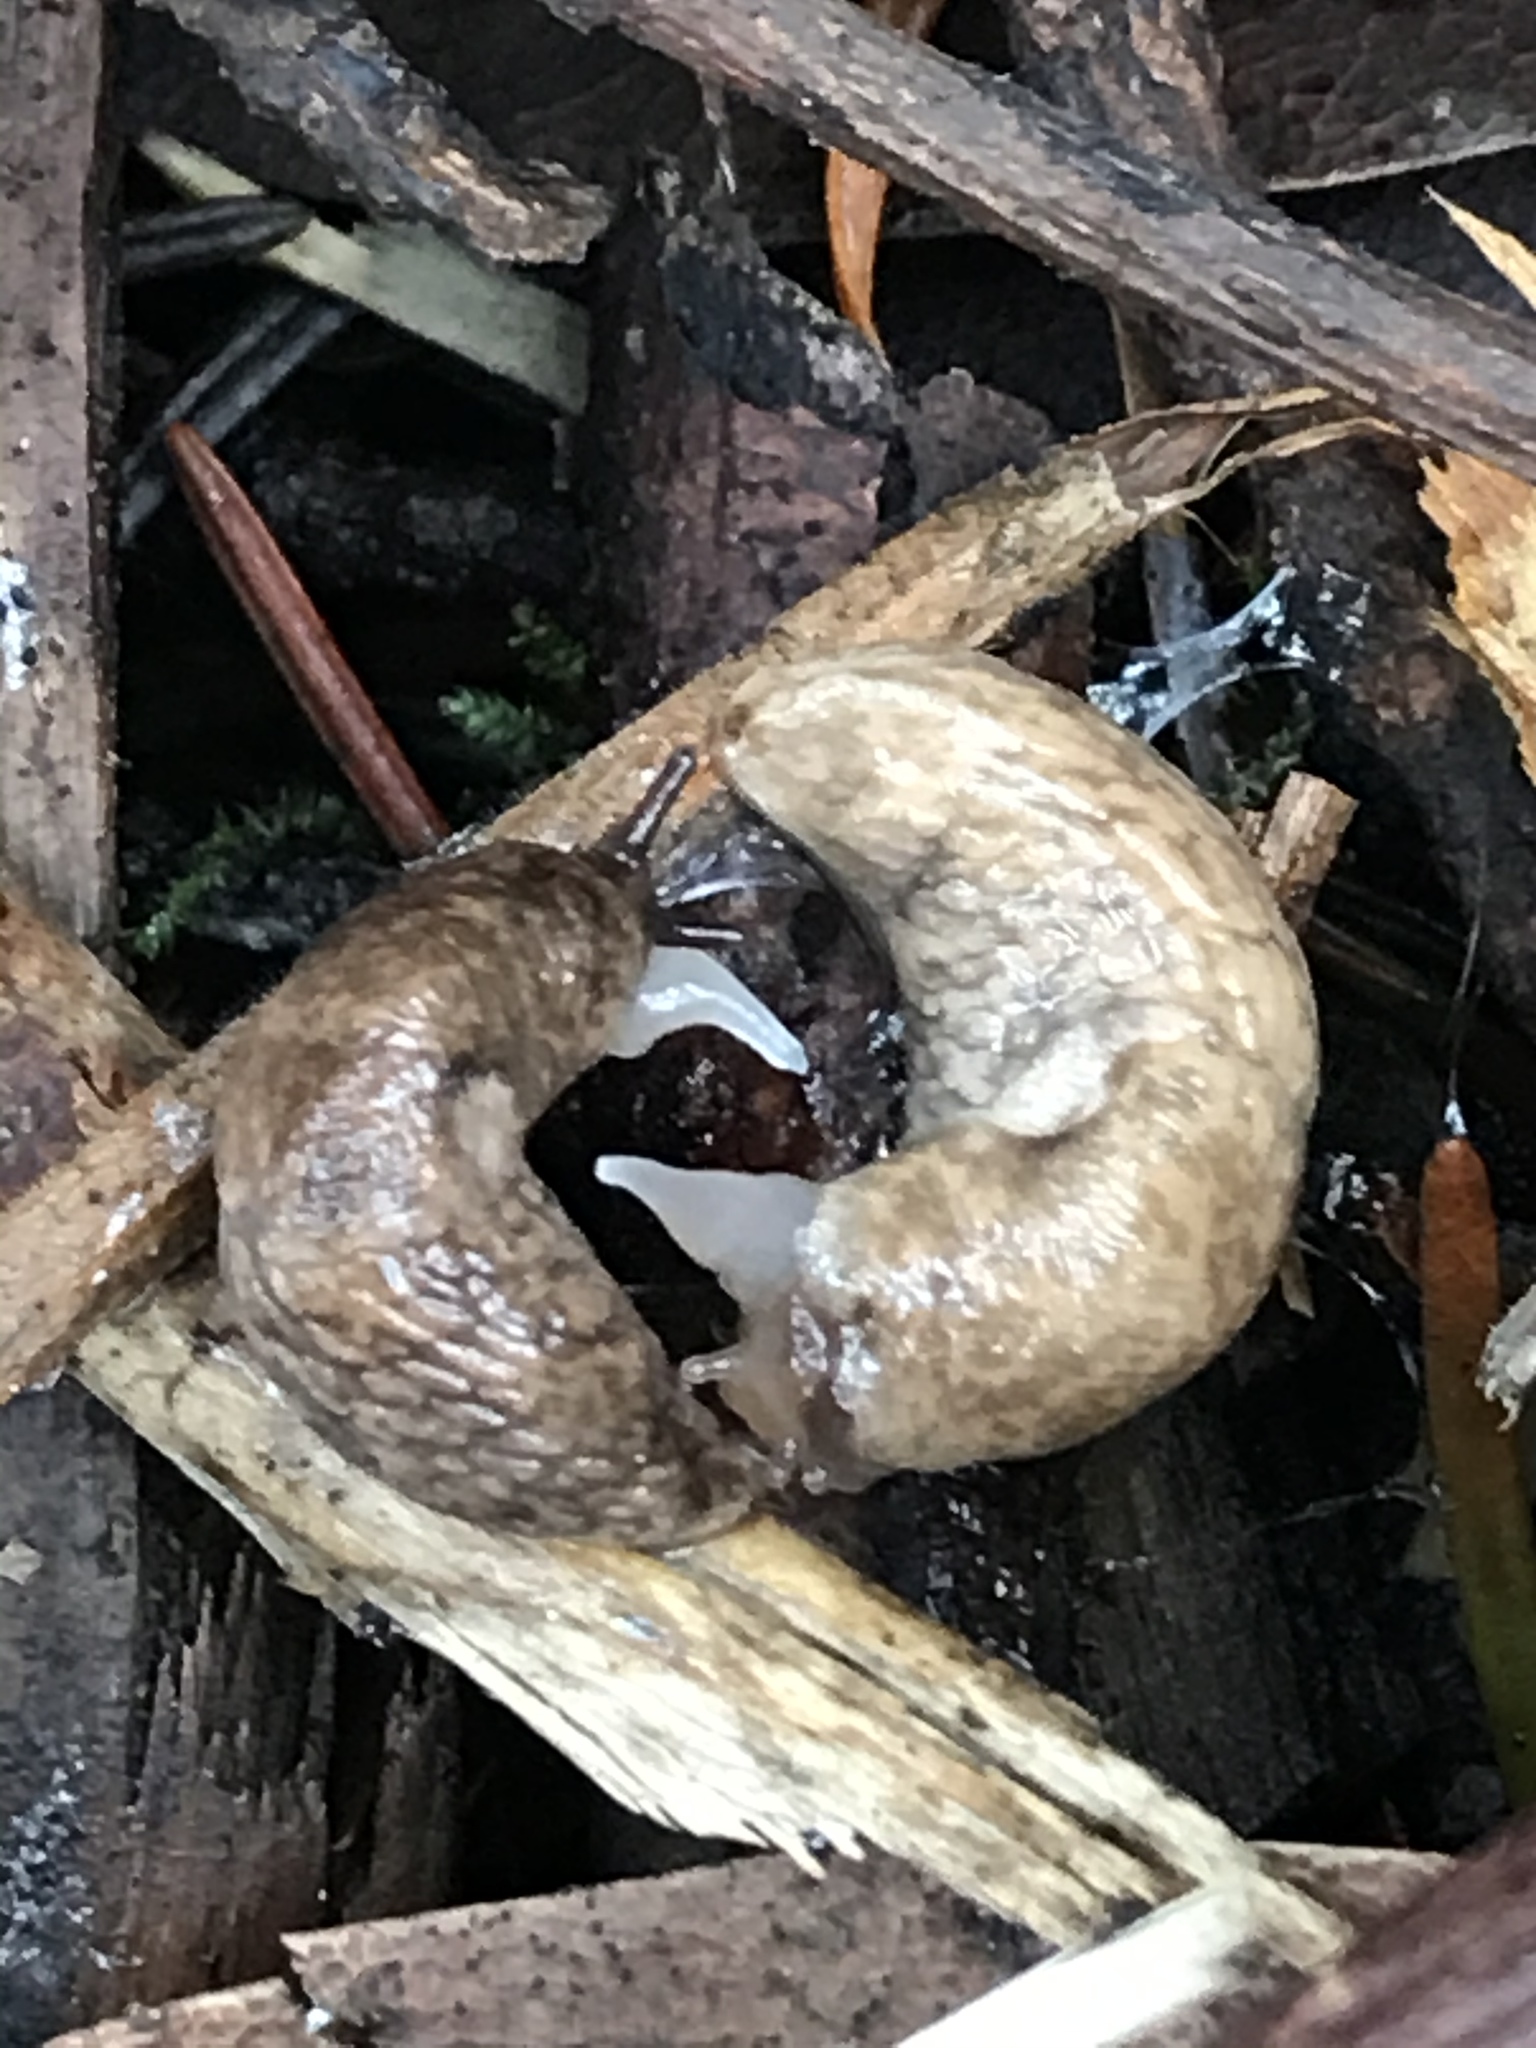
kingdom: Animalia
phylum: Mollusca
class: Gastropoda
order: Stylommatophora
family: Agriolimacidae
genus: Deroceras
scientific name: Deroceras reticulatum
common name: Gray field slug
